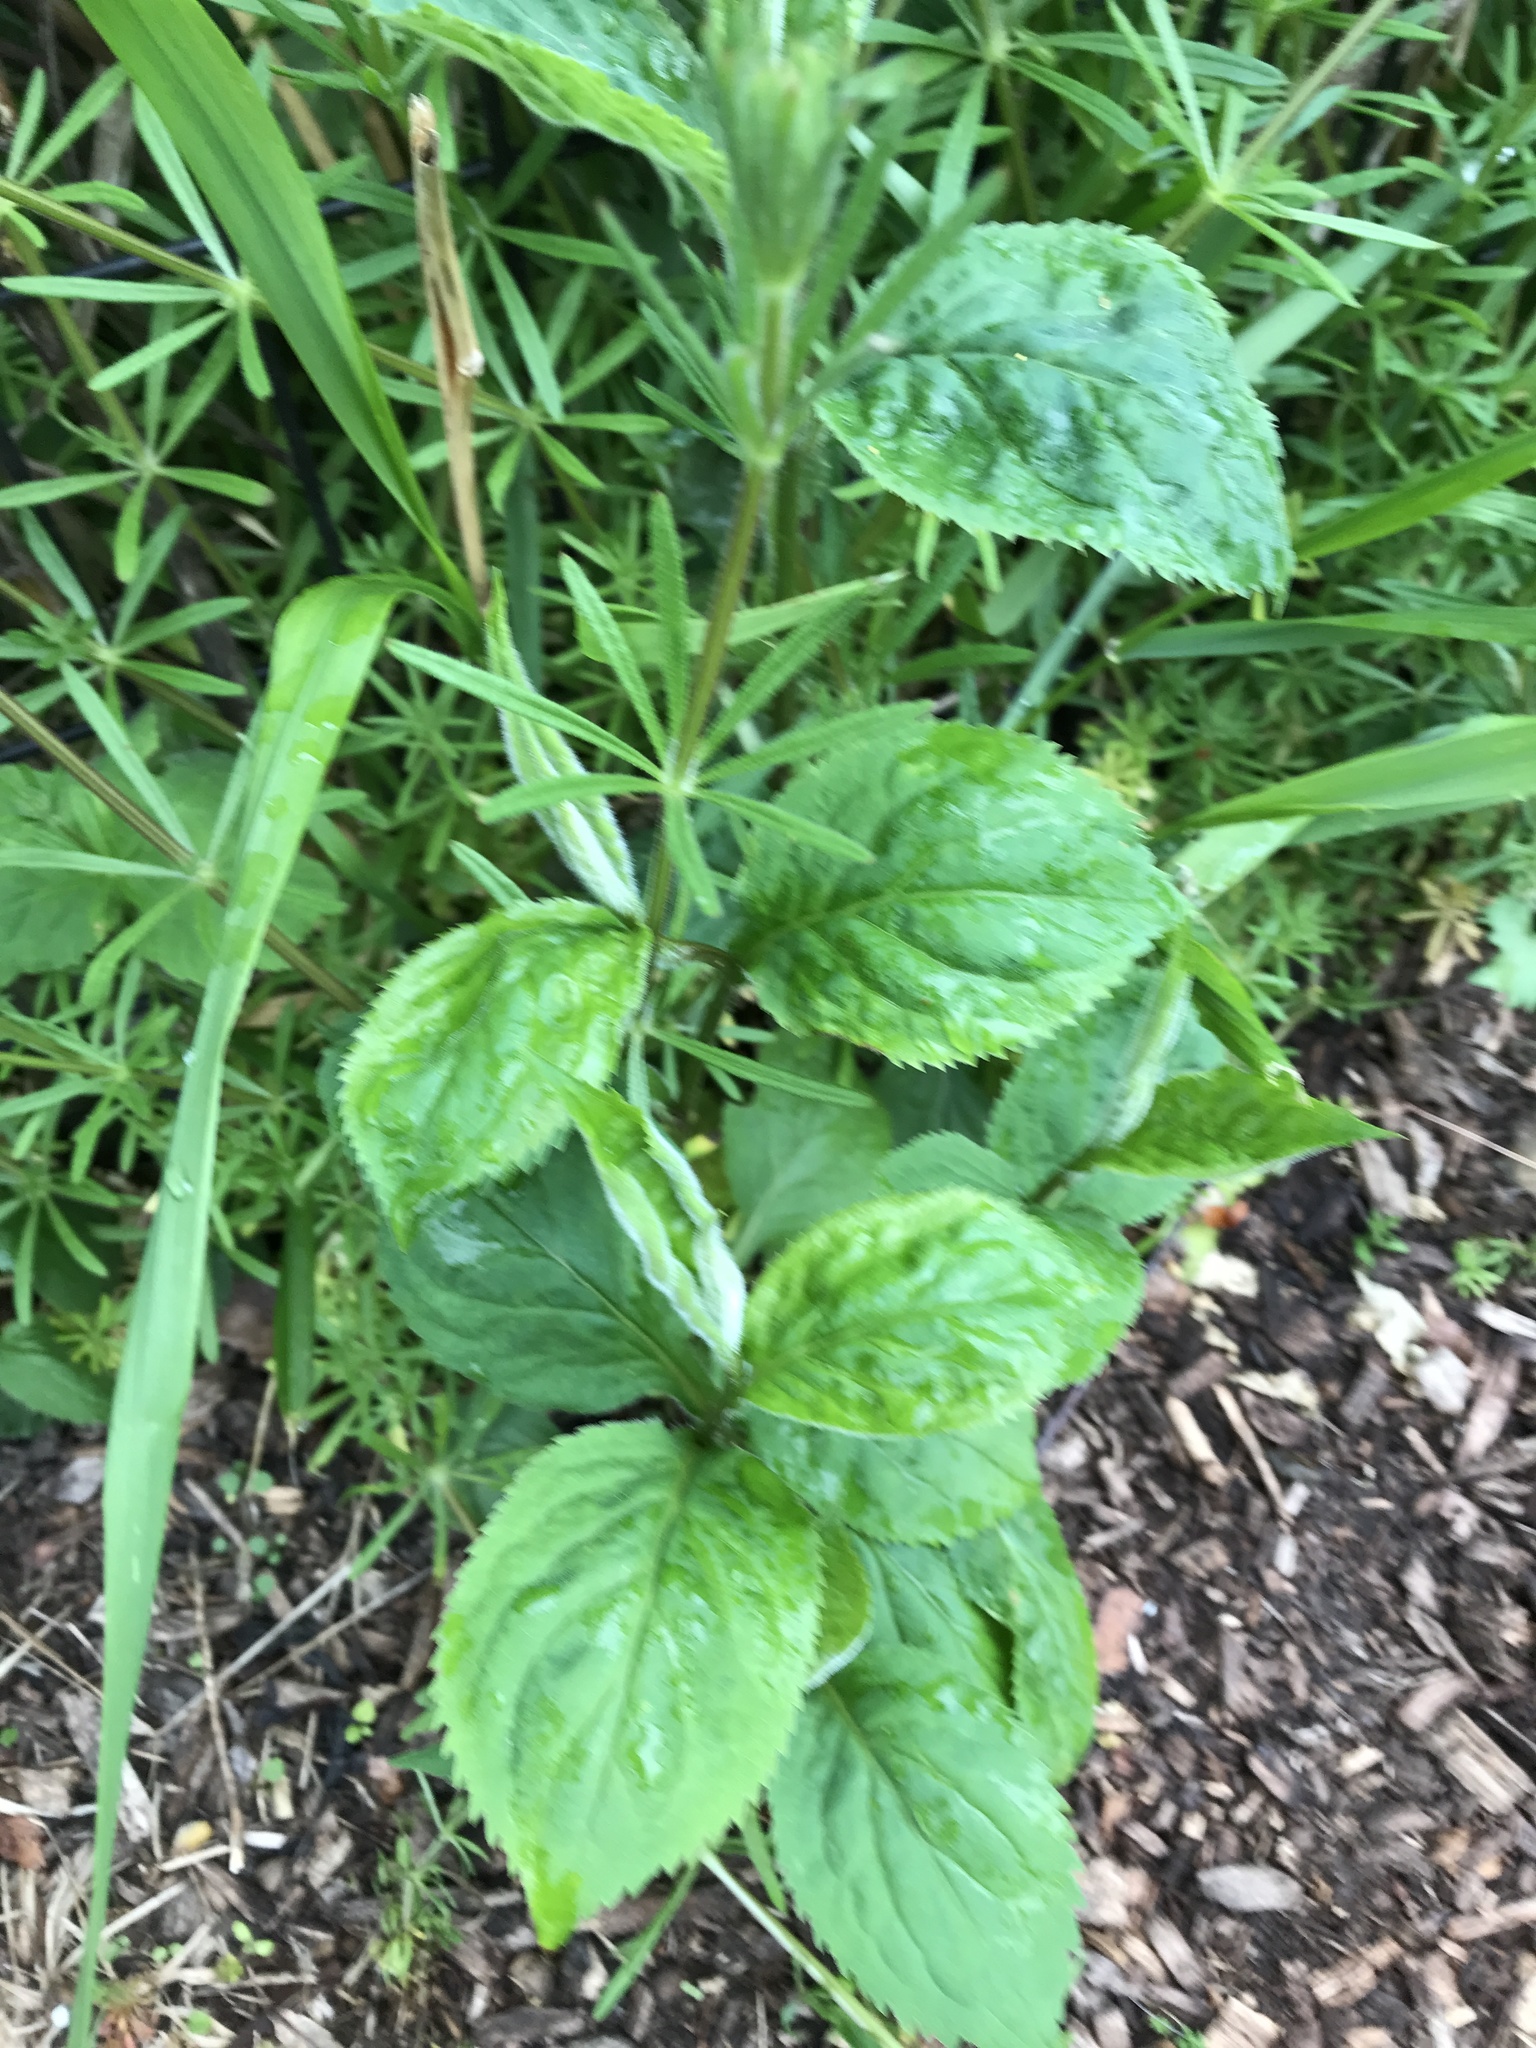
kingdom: Plantae
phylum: Tracheophyta
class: Magnoliopsida
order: Asterales
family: Asteraceae
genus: Solidago
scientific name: Solidago flexicaulis
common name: Zig-zag goldenrod
